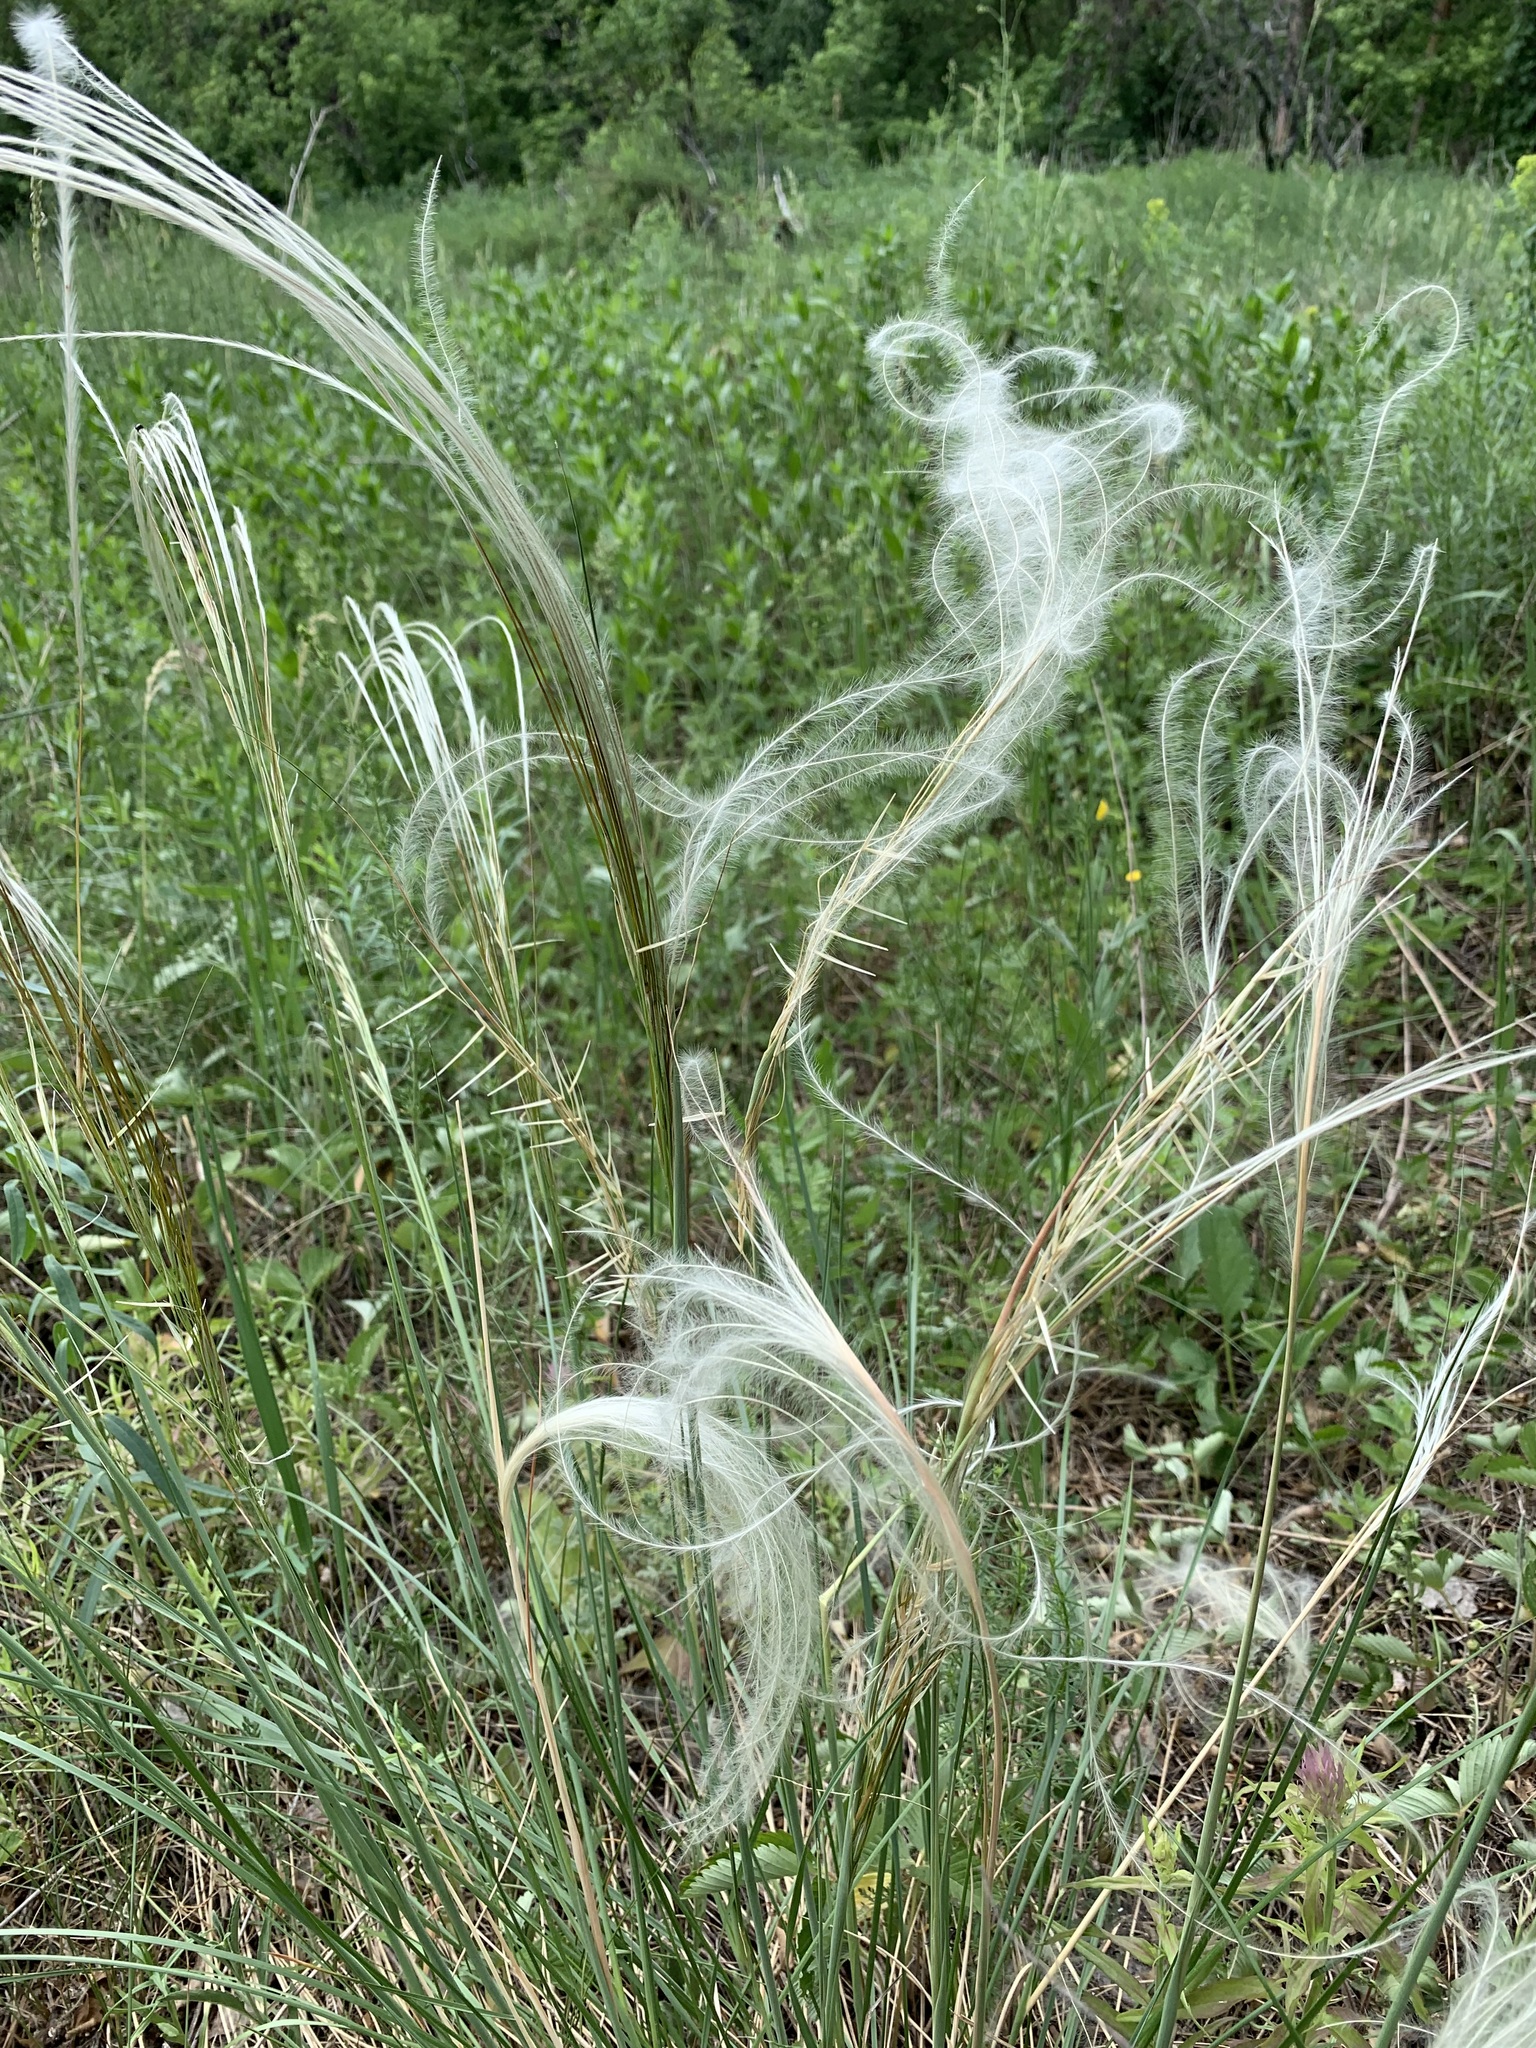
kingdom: Plantae
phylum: Tracheophyta
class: Liliopsida
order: Poales
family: Poaceae
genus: Stipa
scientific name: Stipa pennata
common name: European feather grass
